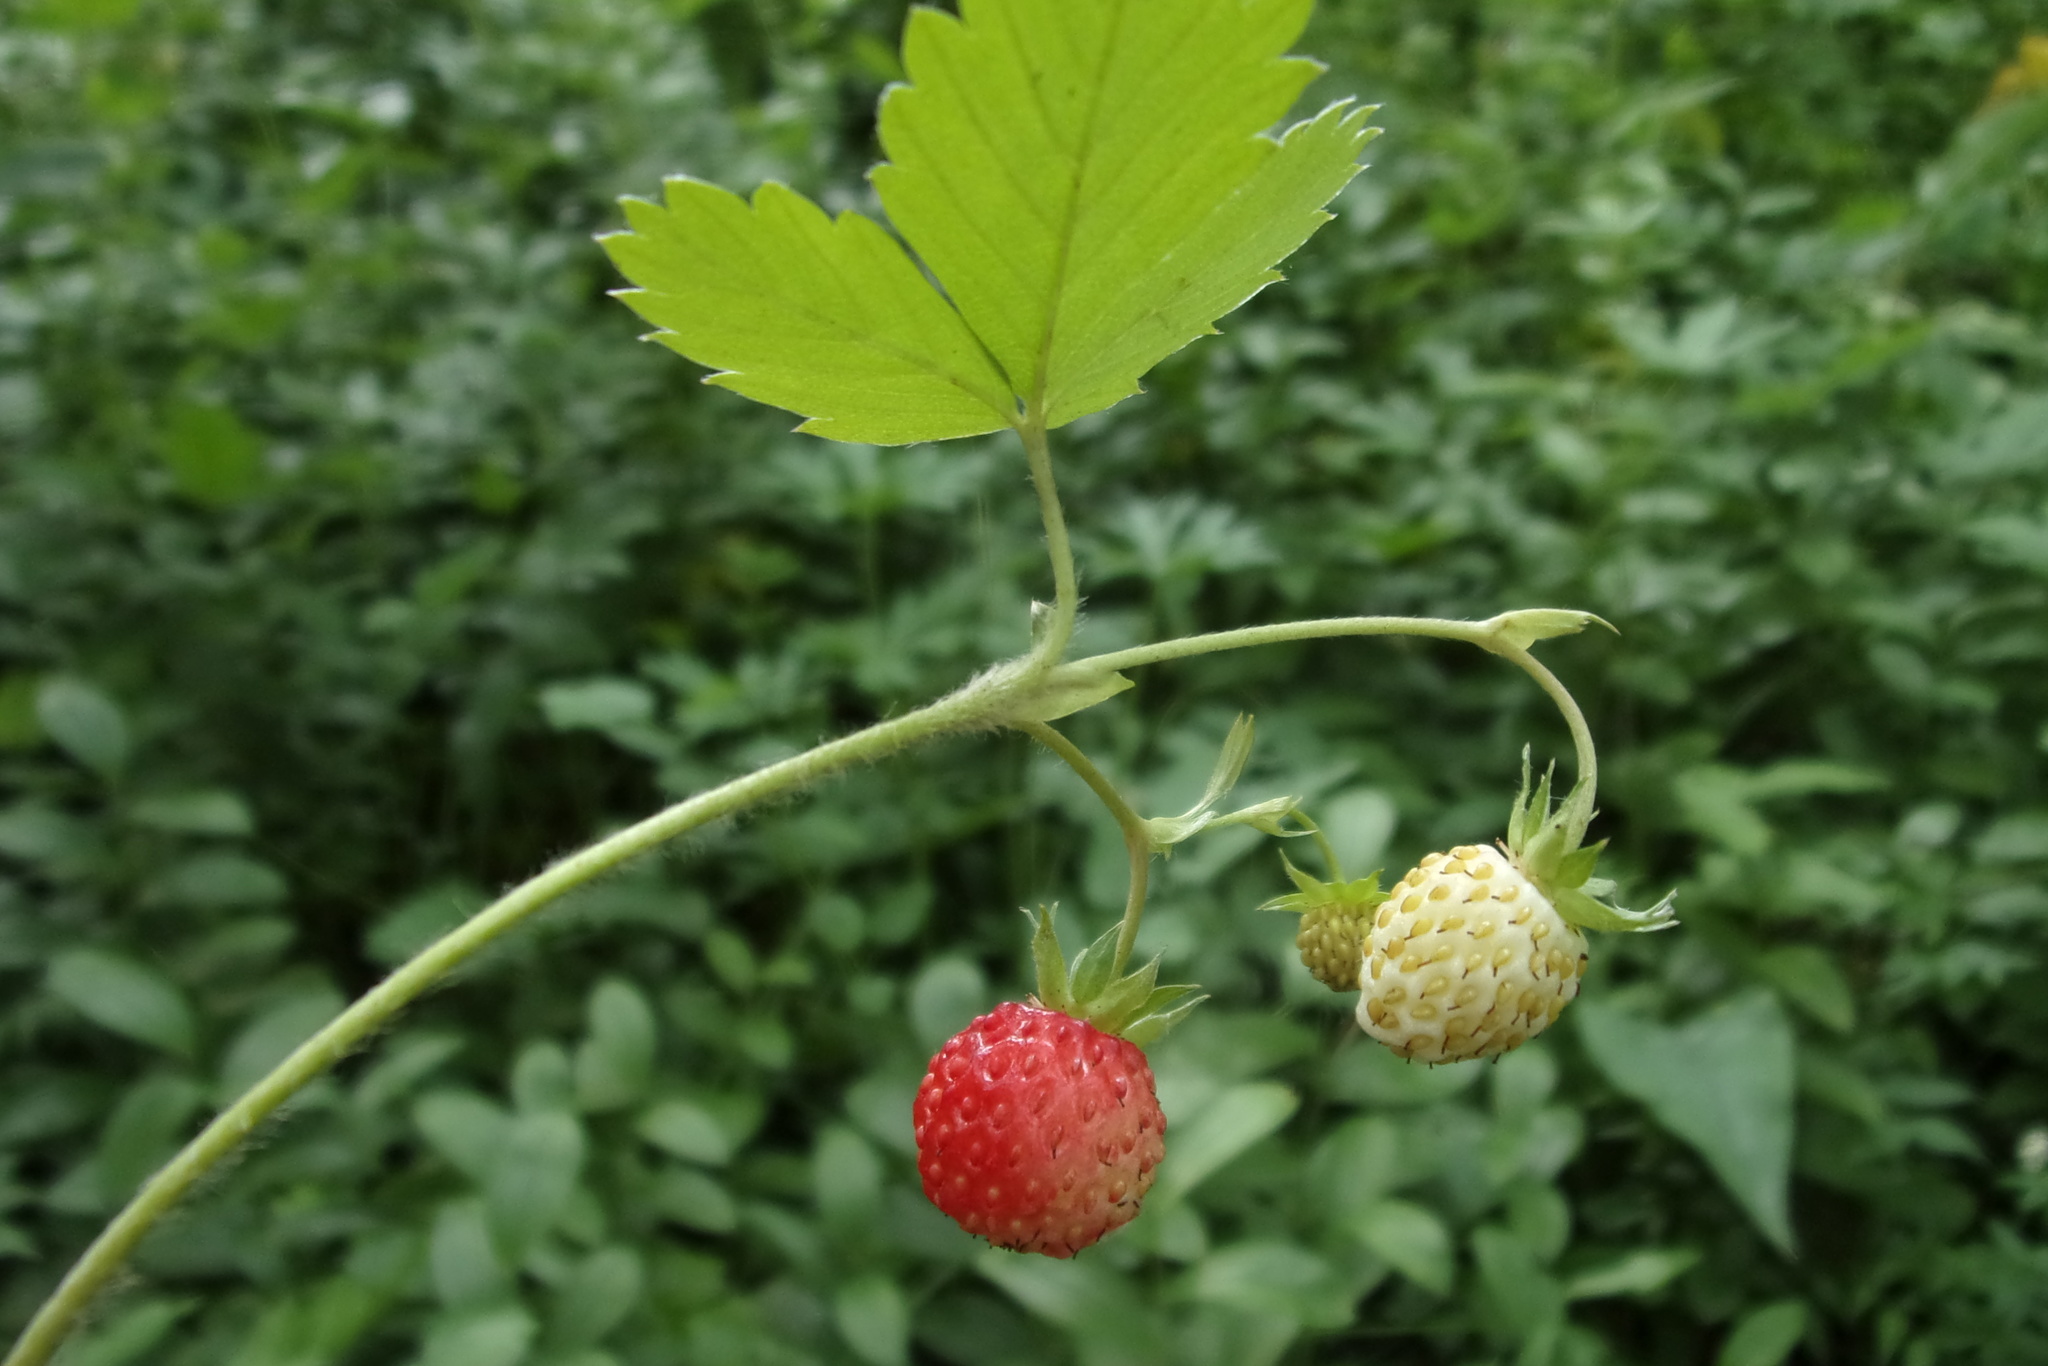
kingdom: Plantae
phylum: Tracheophyta
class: Magnoliopsida
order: Rosales
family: Rosaceae
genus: Fragaria
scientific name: Fragaria vesca
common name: Wild strawberry
